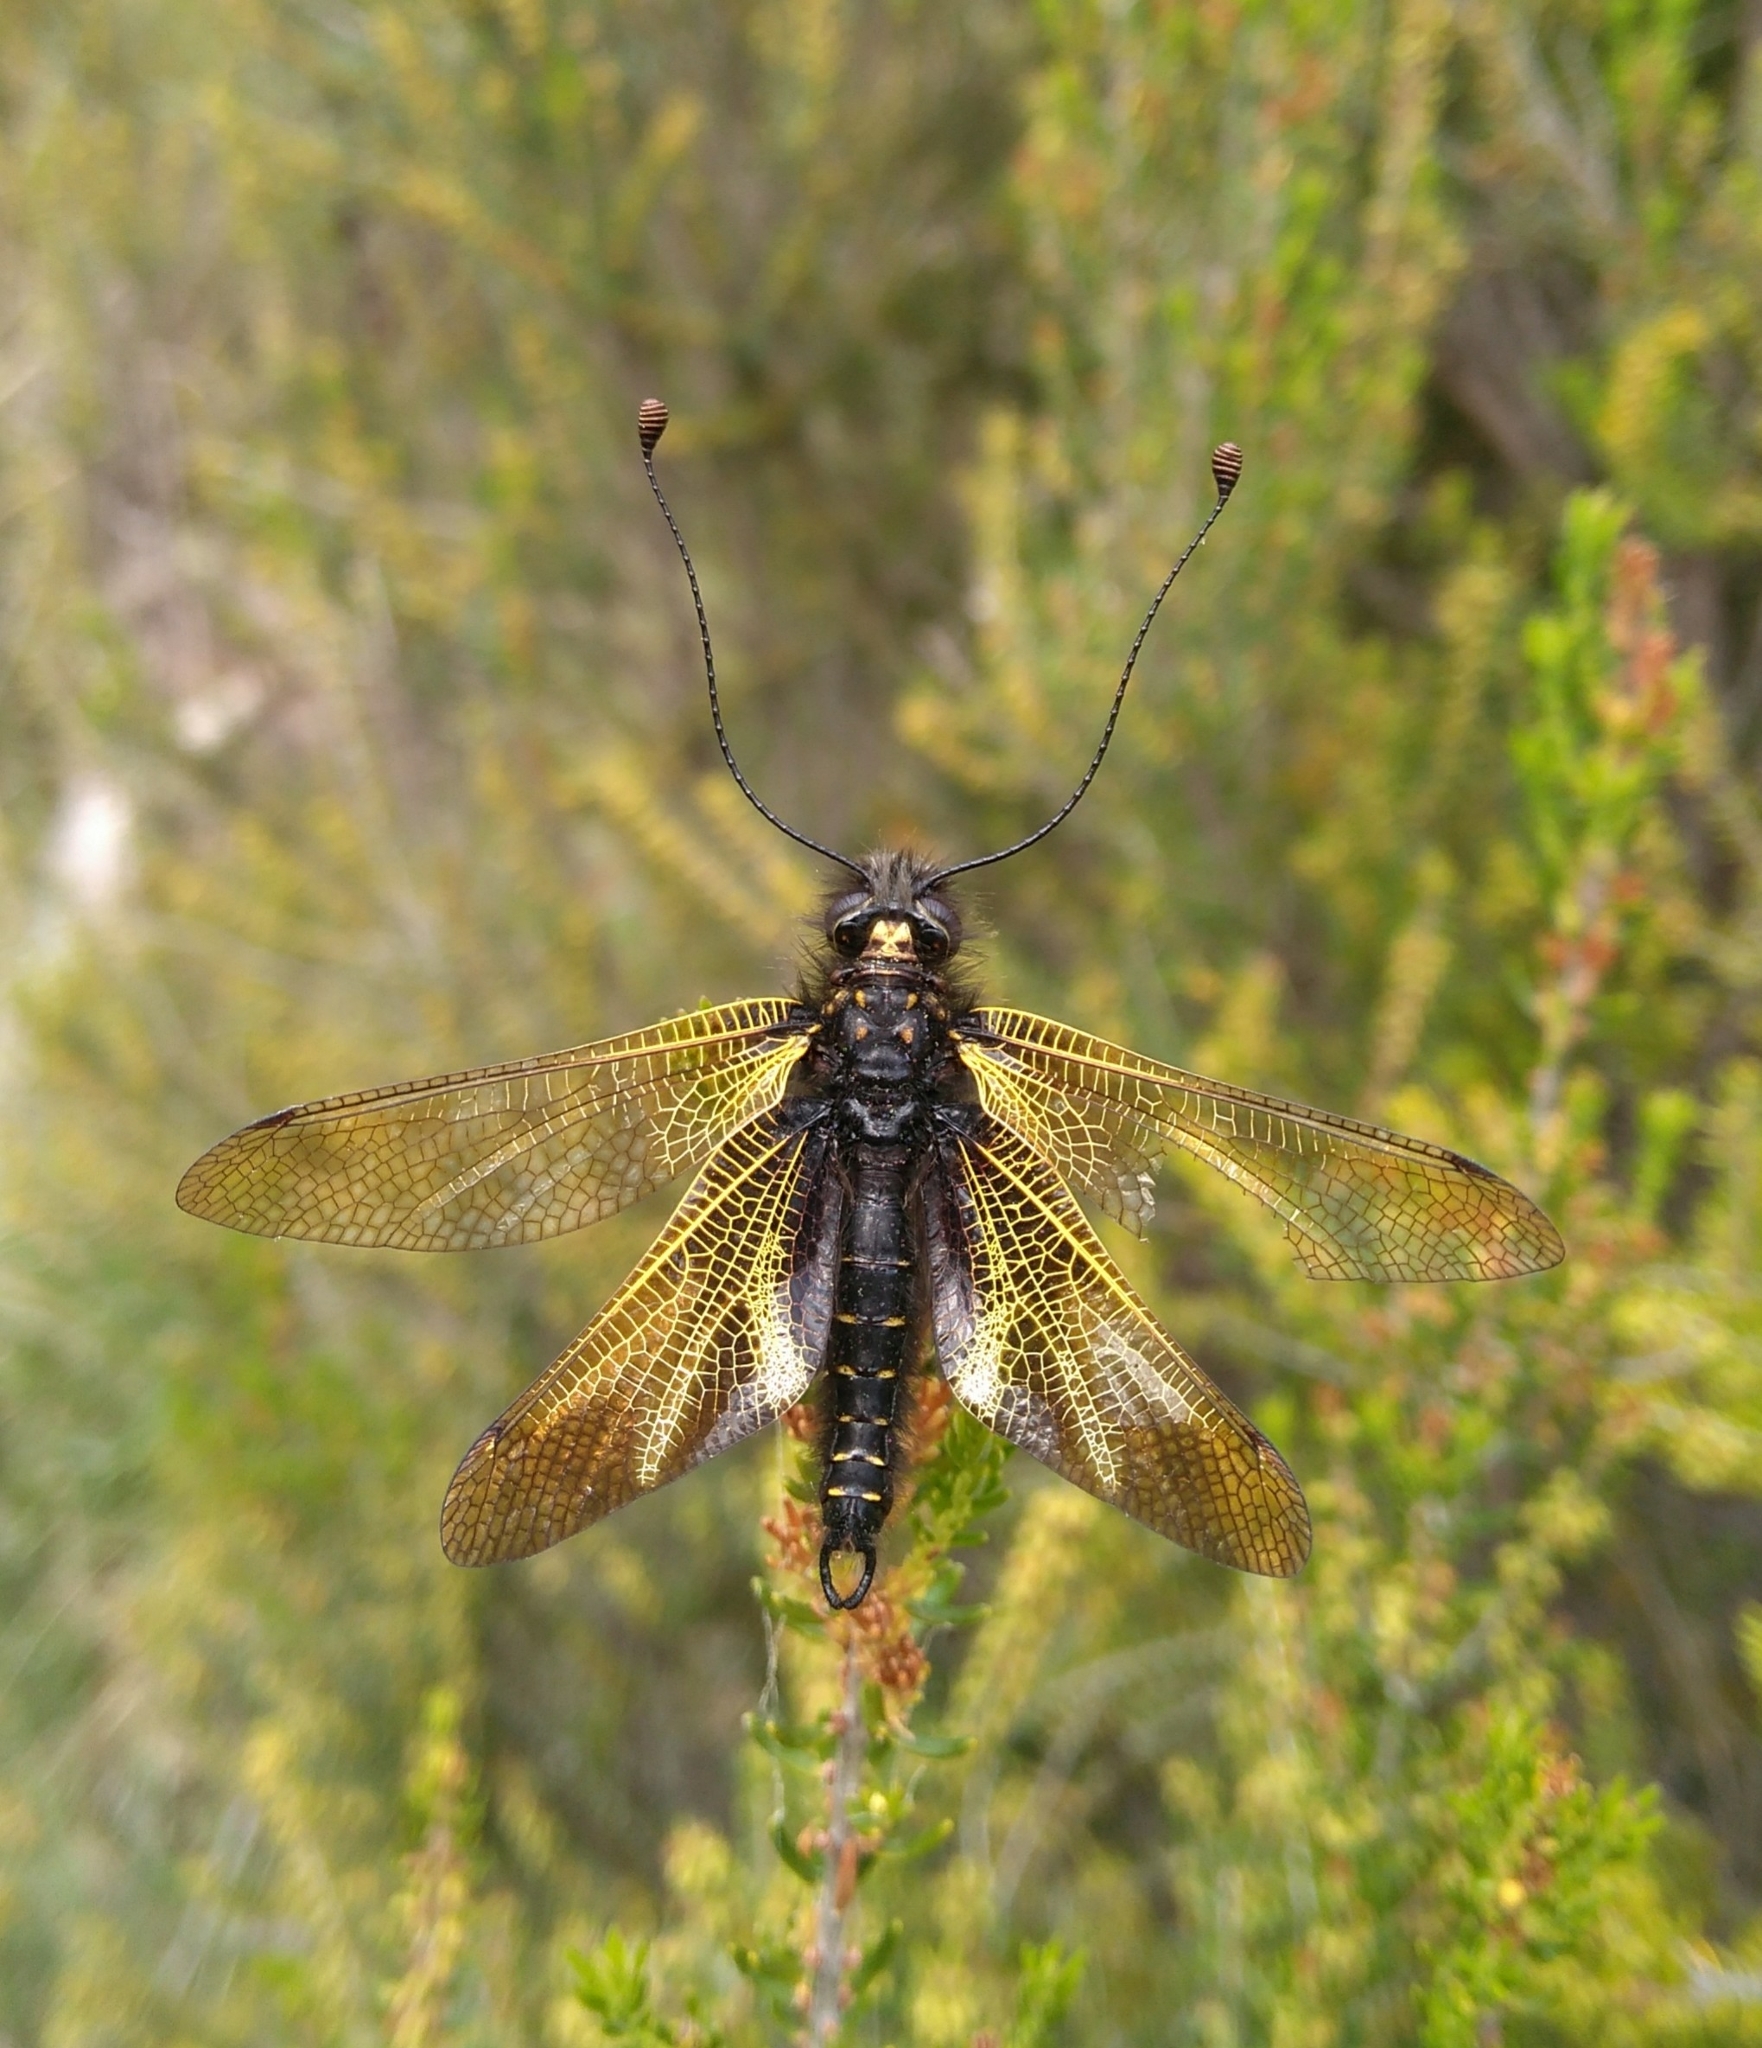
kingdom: Animalia
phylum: Arthropoda
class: Insecta
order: Neuroptera
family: Ascalaphidae
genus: Libelloides
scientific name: Libelloides hispanicus
